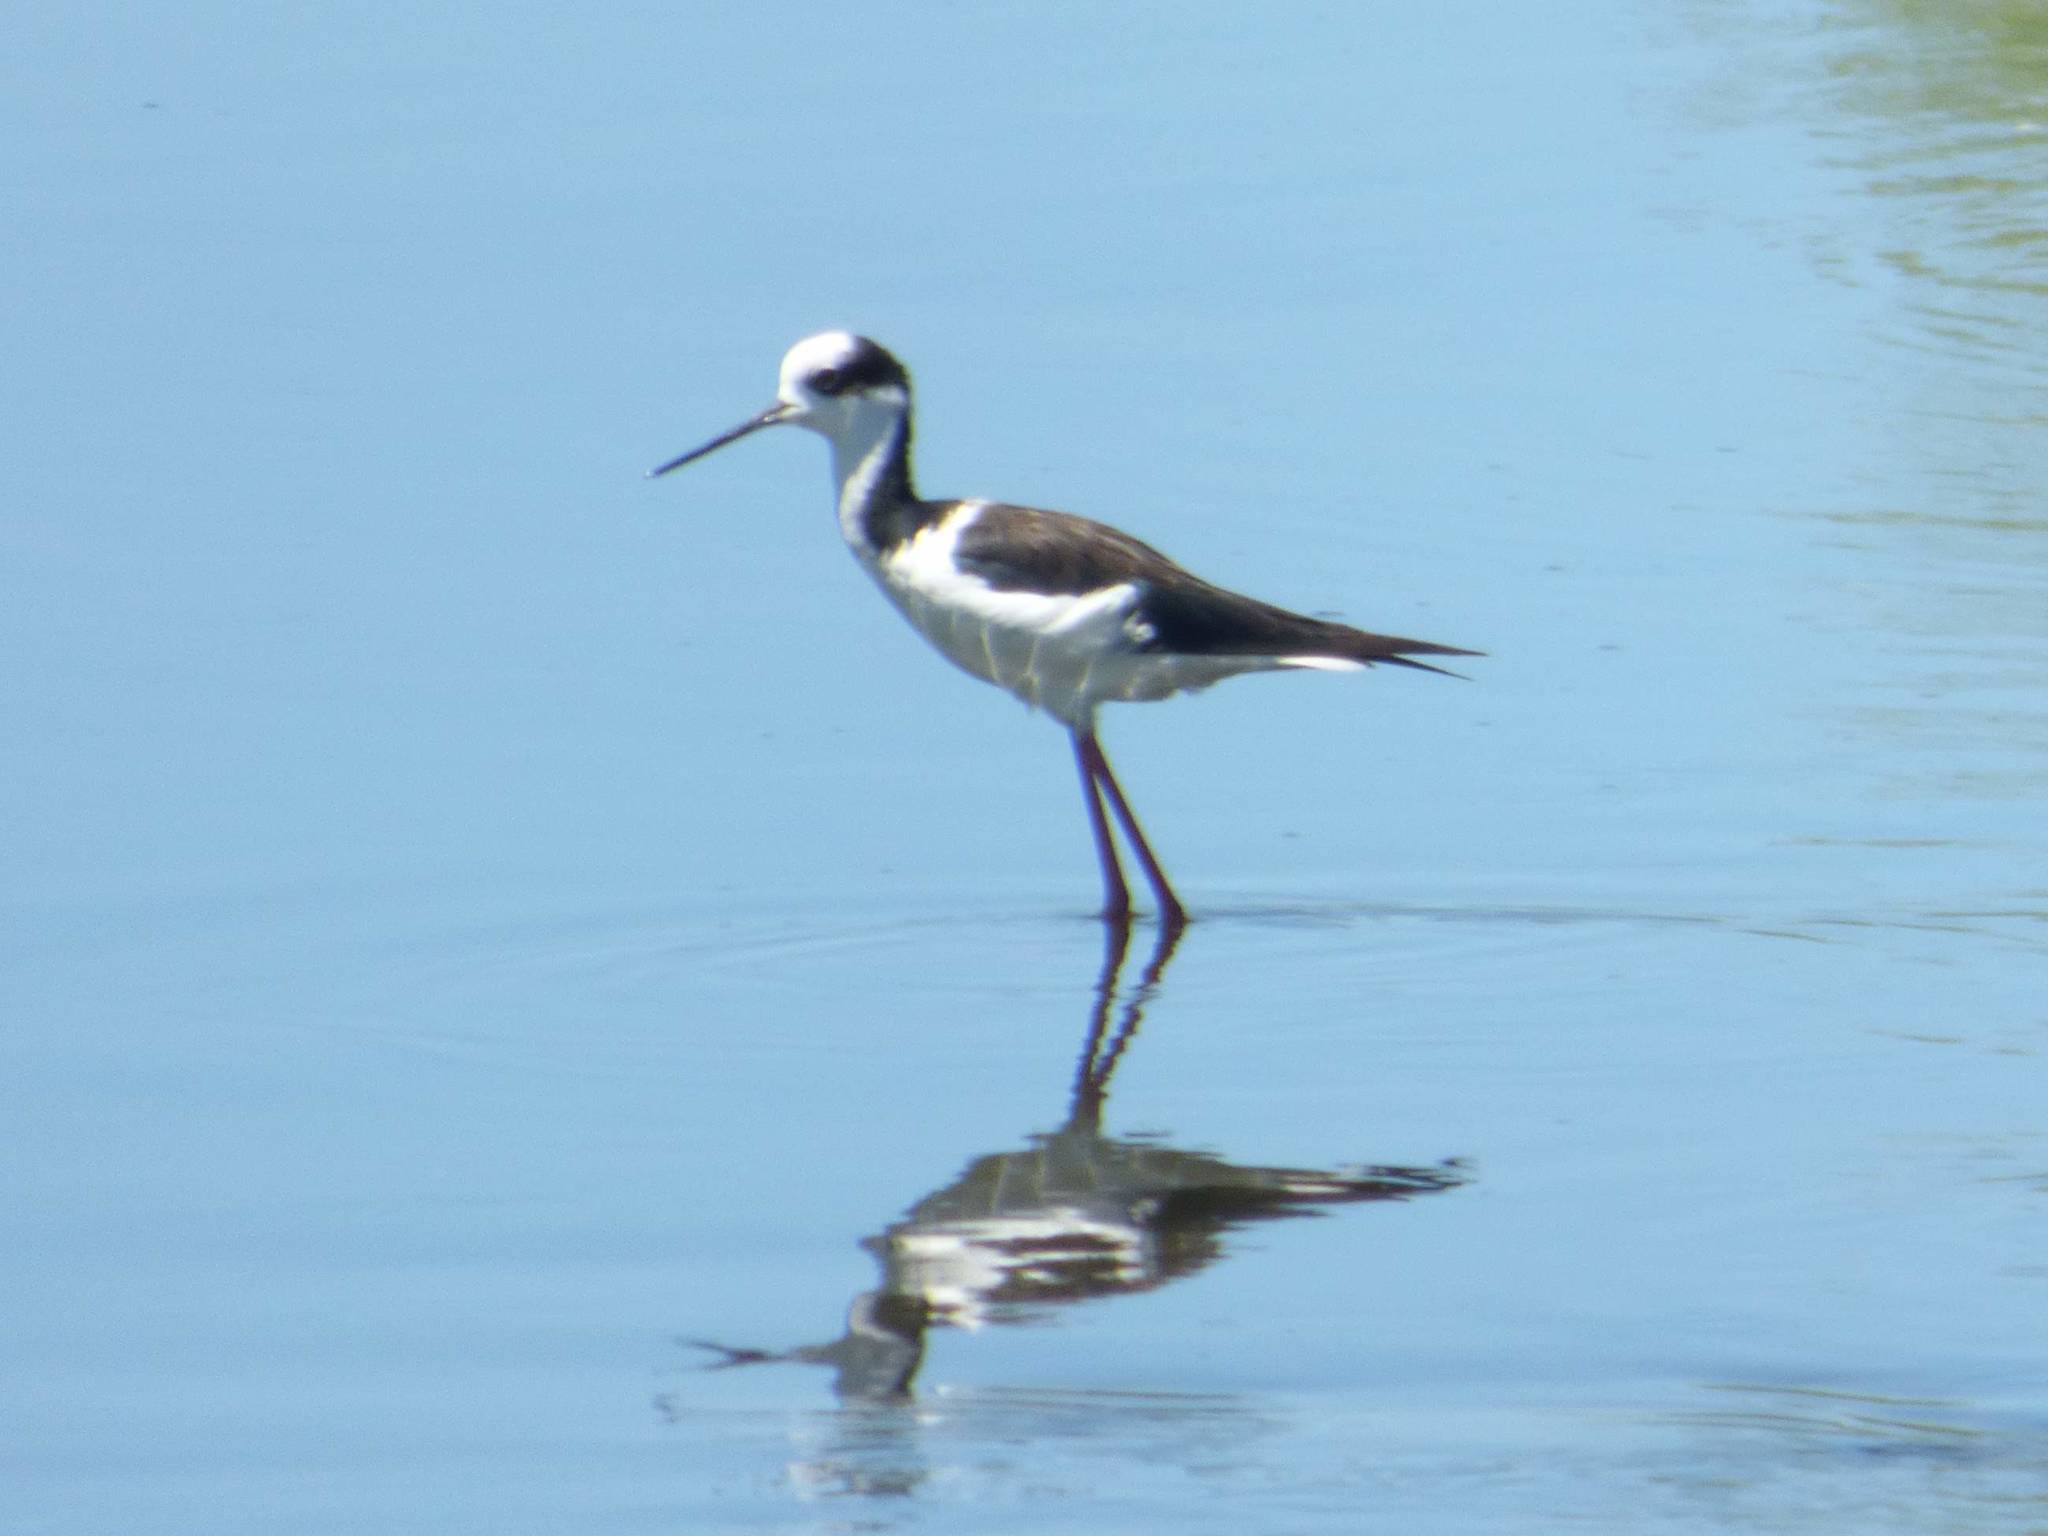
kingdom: Animalia
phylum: Chordata
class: Aves
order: Charadriiformes
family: Recurvirostridae
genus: Himantopus
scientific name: Himantopus mexicanus
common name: Black-necked stilt
